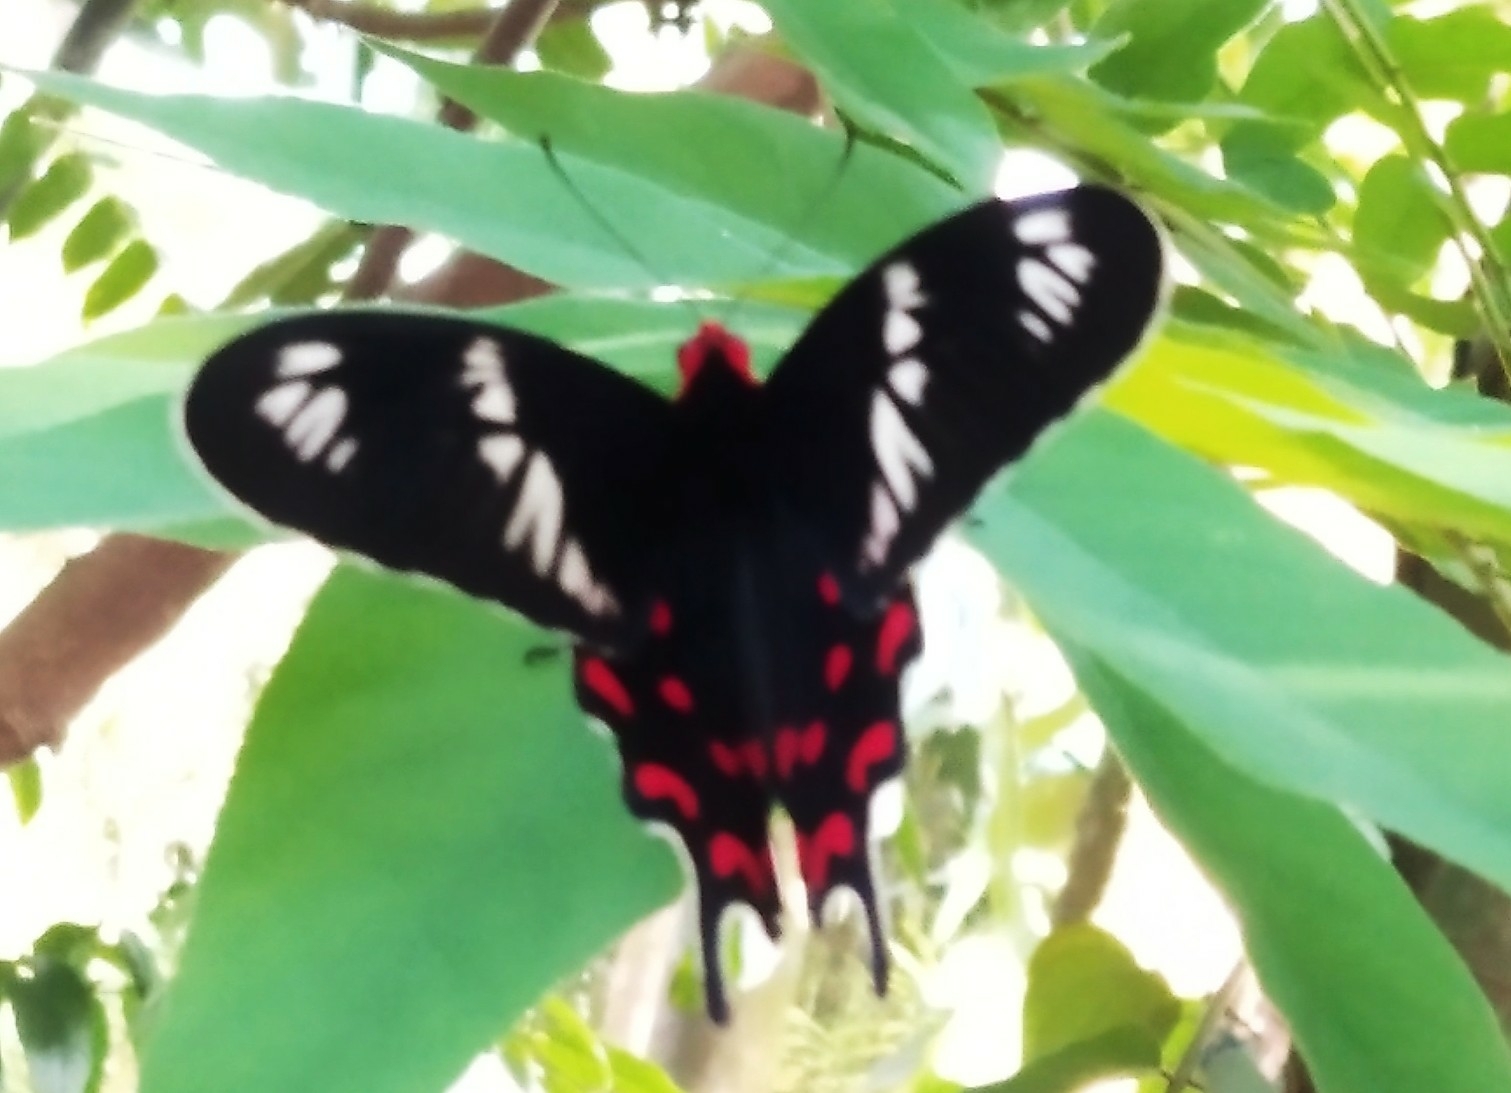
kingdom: Animalia
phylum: Arthropoda
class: Insecta
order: Lepidoptera
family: Papilionidae
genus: Pachliopta
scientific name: Pachliopta hector
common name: Crimson rose
